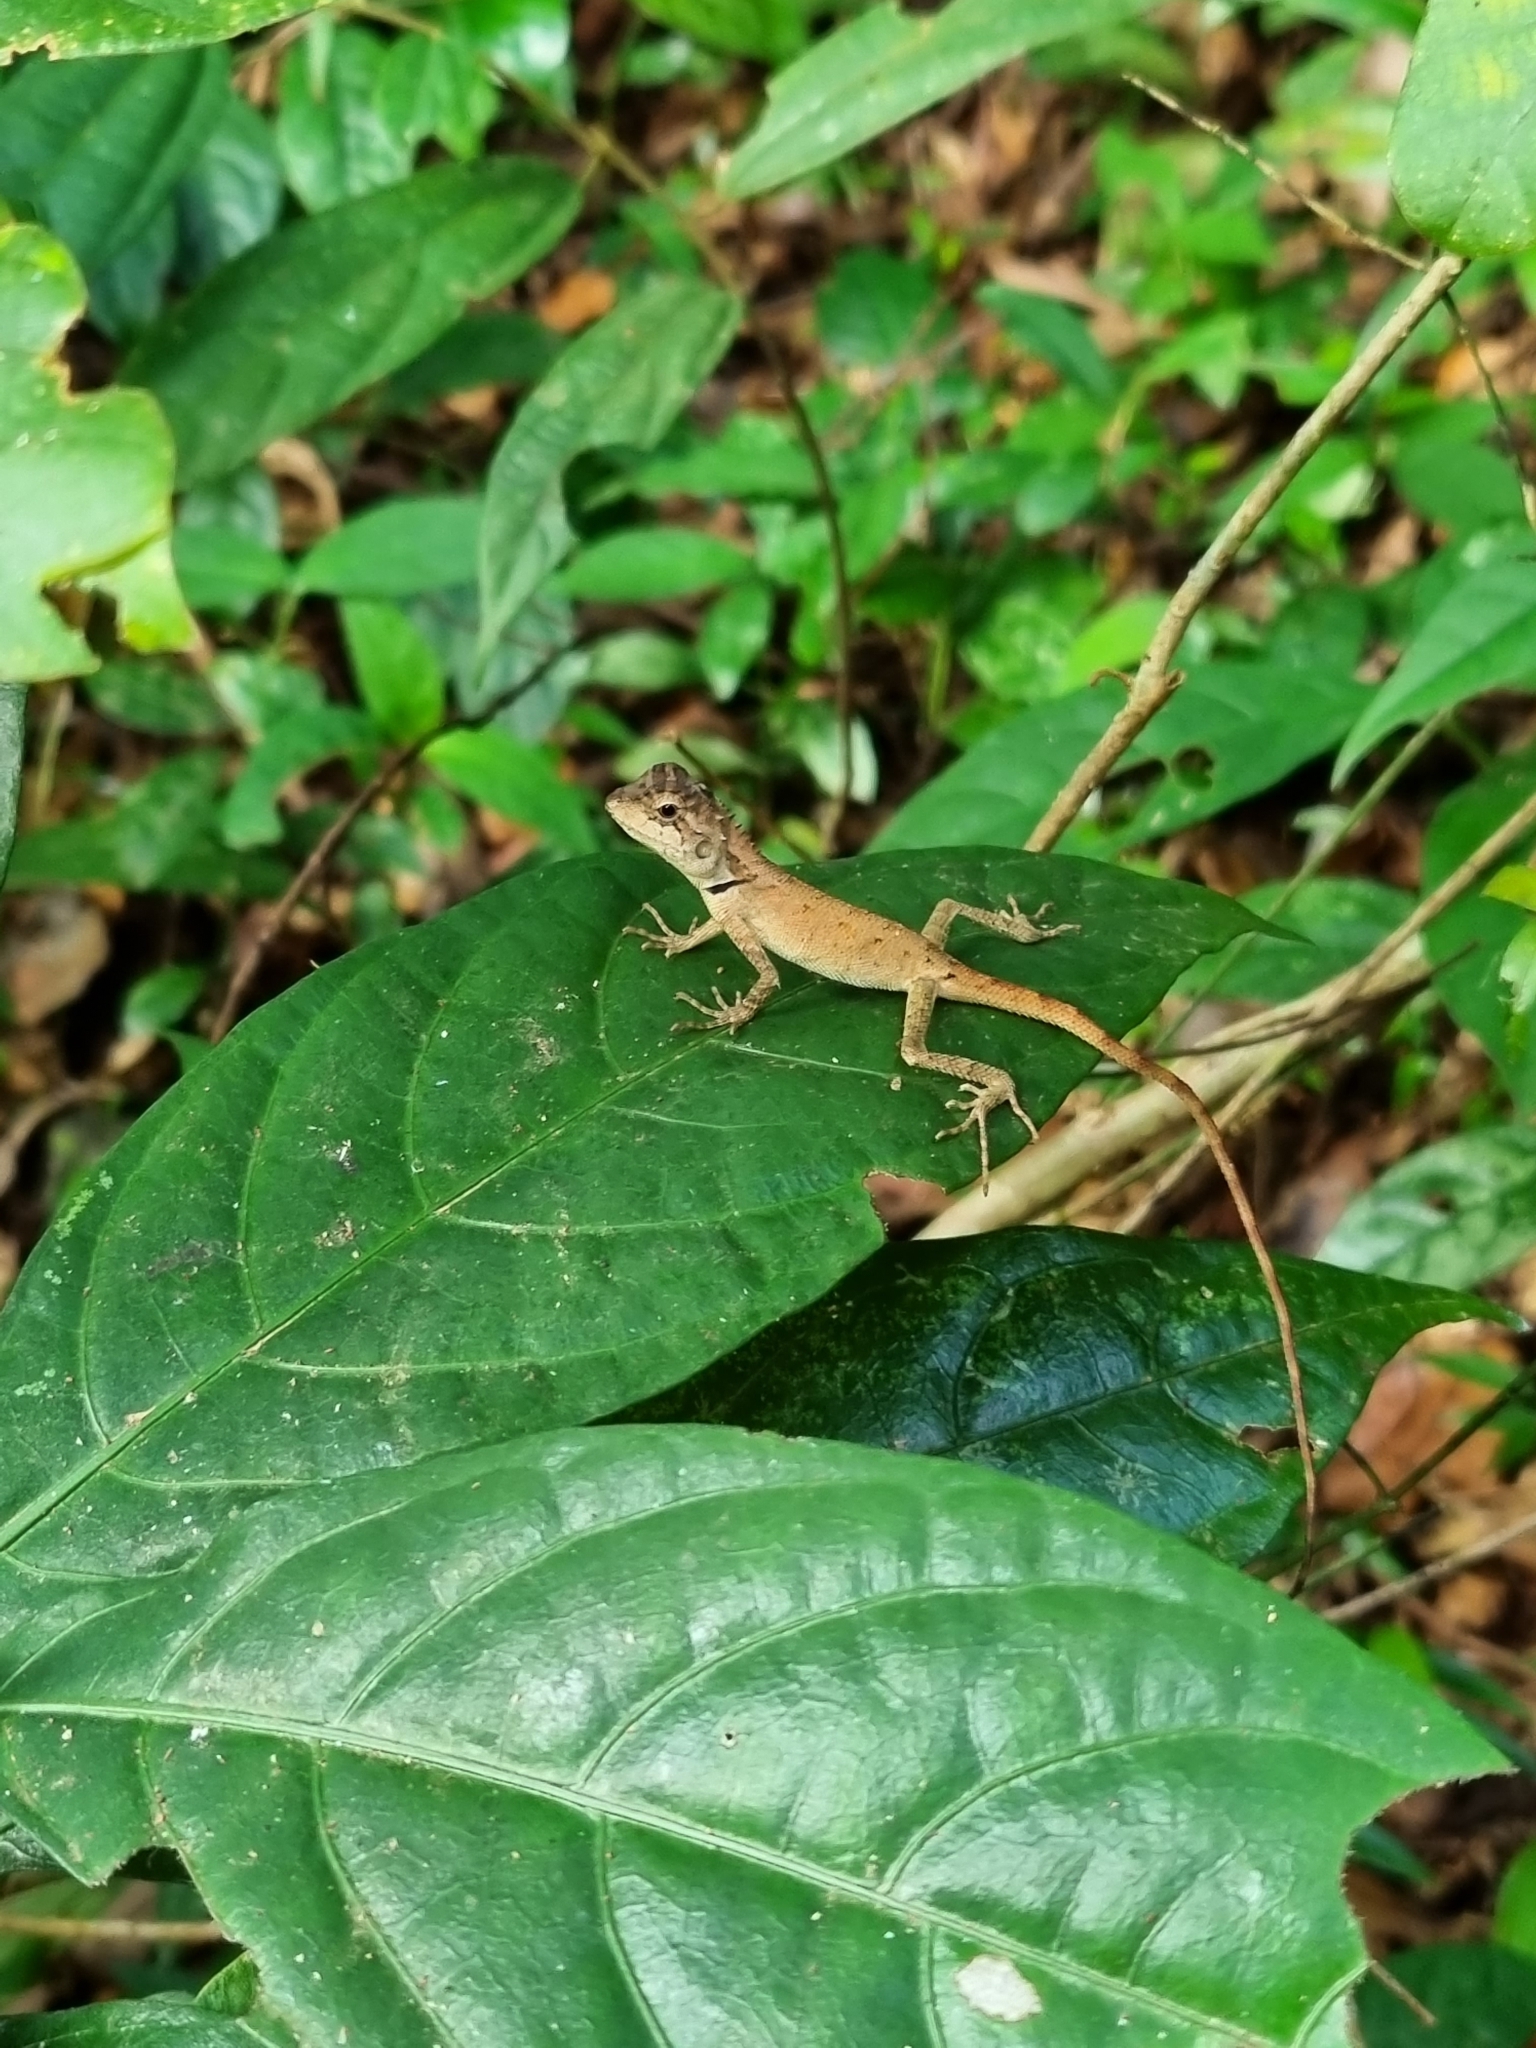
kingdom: Animalia
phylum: Chordata
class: Squamata
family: Agamidae
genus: Monilesaurus
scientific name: Monilesaurus rouxii
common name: Roux's forest lizard
